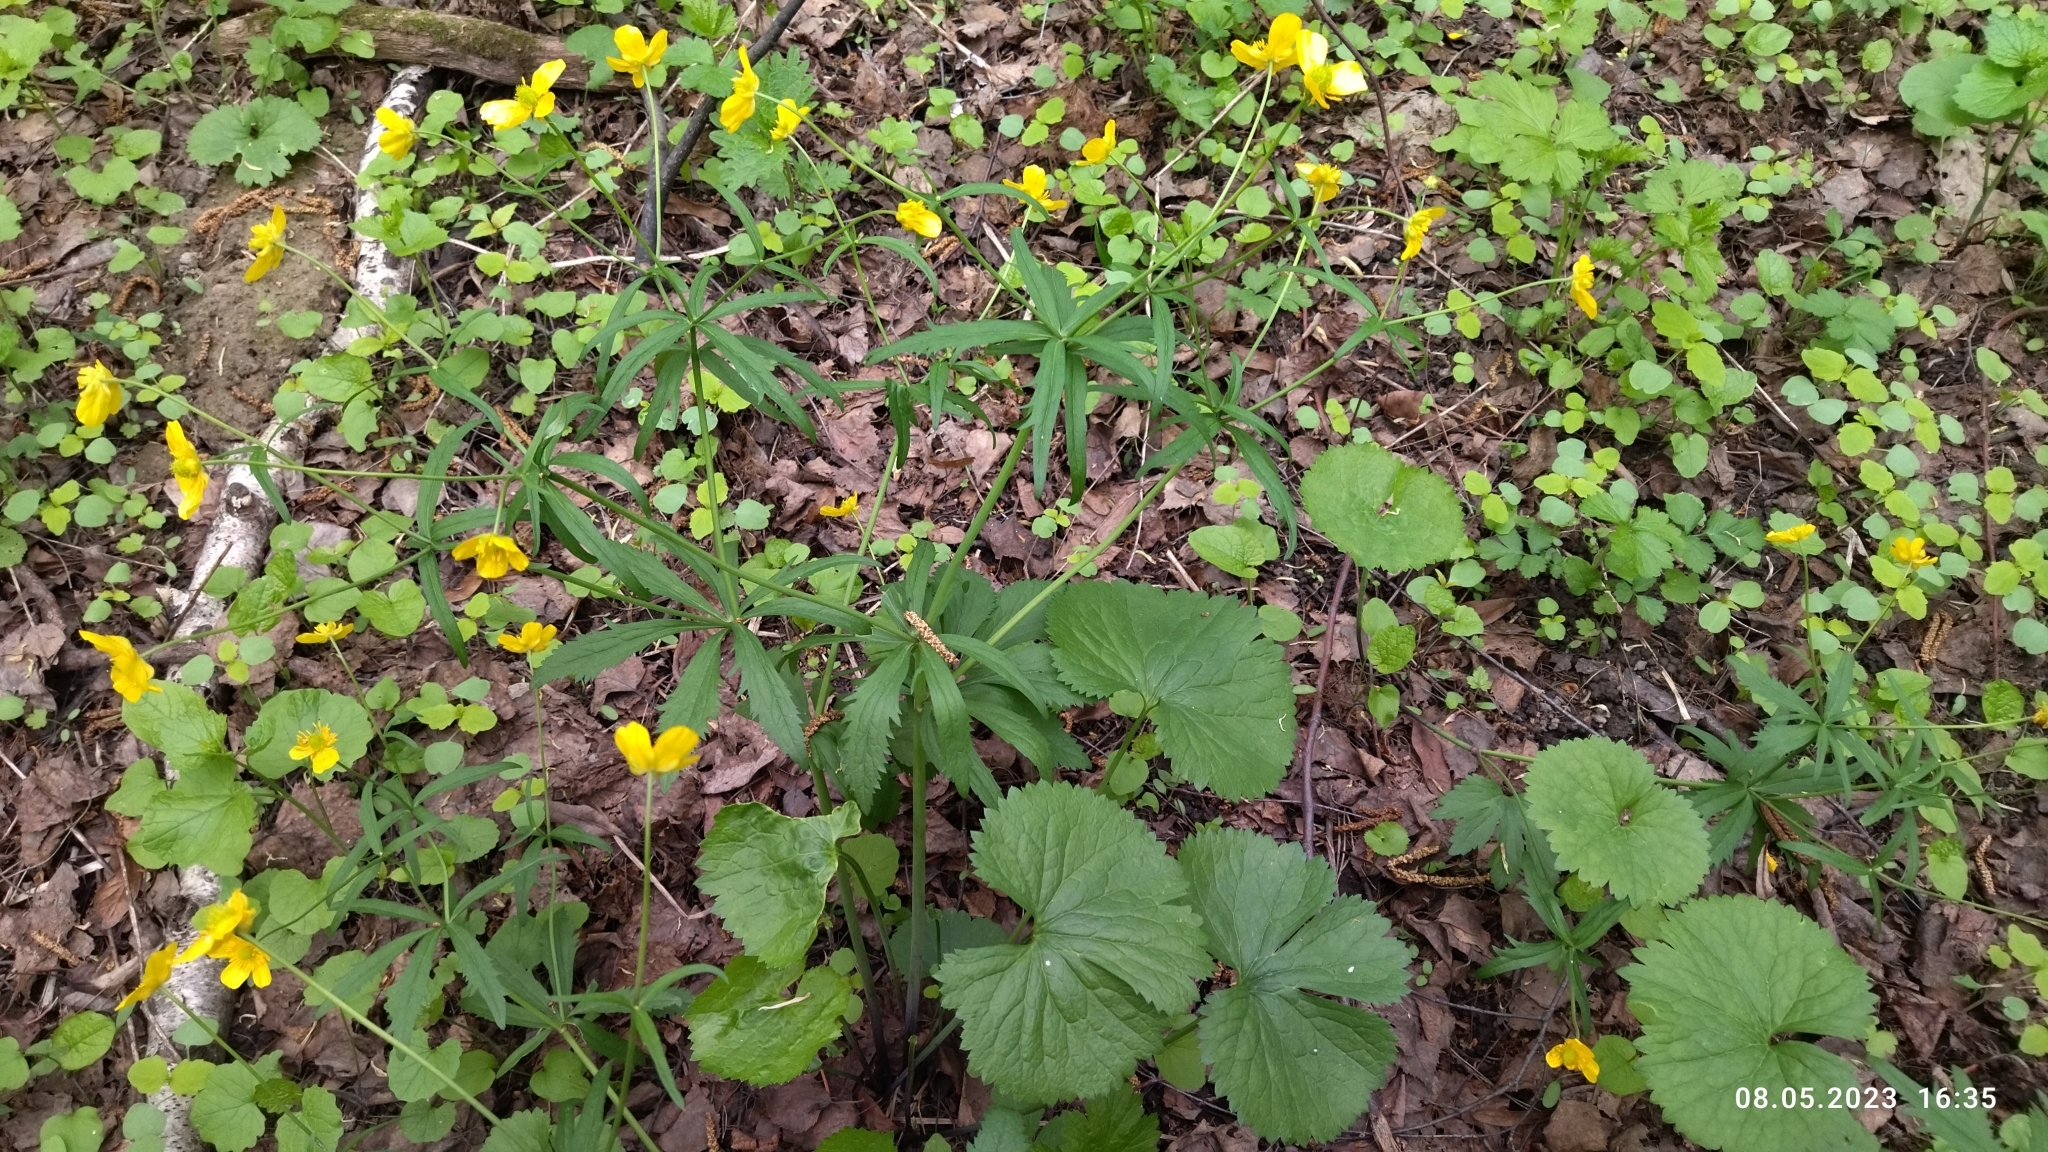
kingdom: Plantae
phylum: Tracheophyta
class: Magnoliopsida
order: Ranunculales
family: Ranunculaceae
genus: Ranunculus
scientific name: Ranunculus cassubicus
